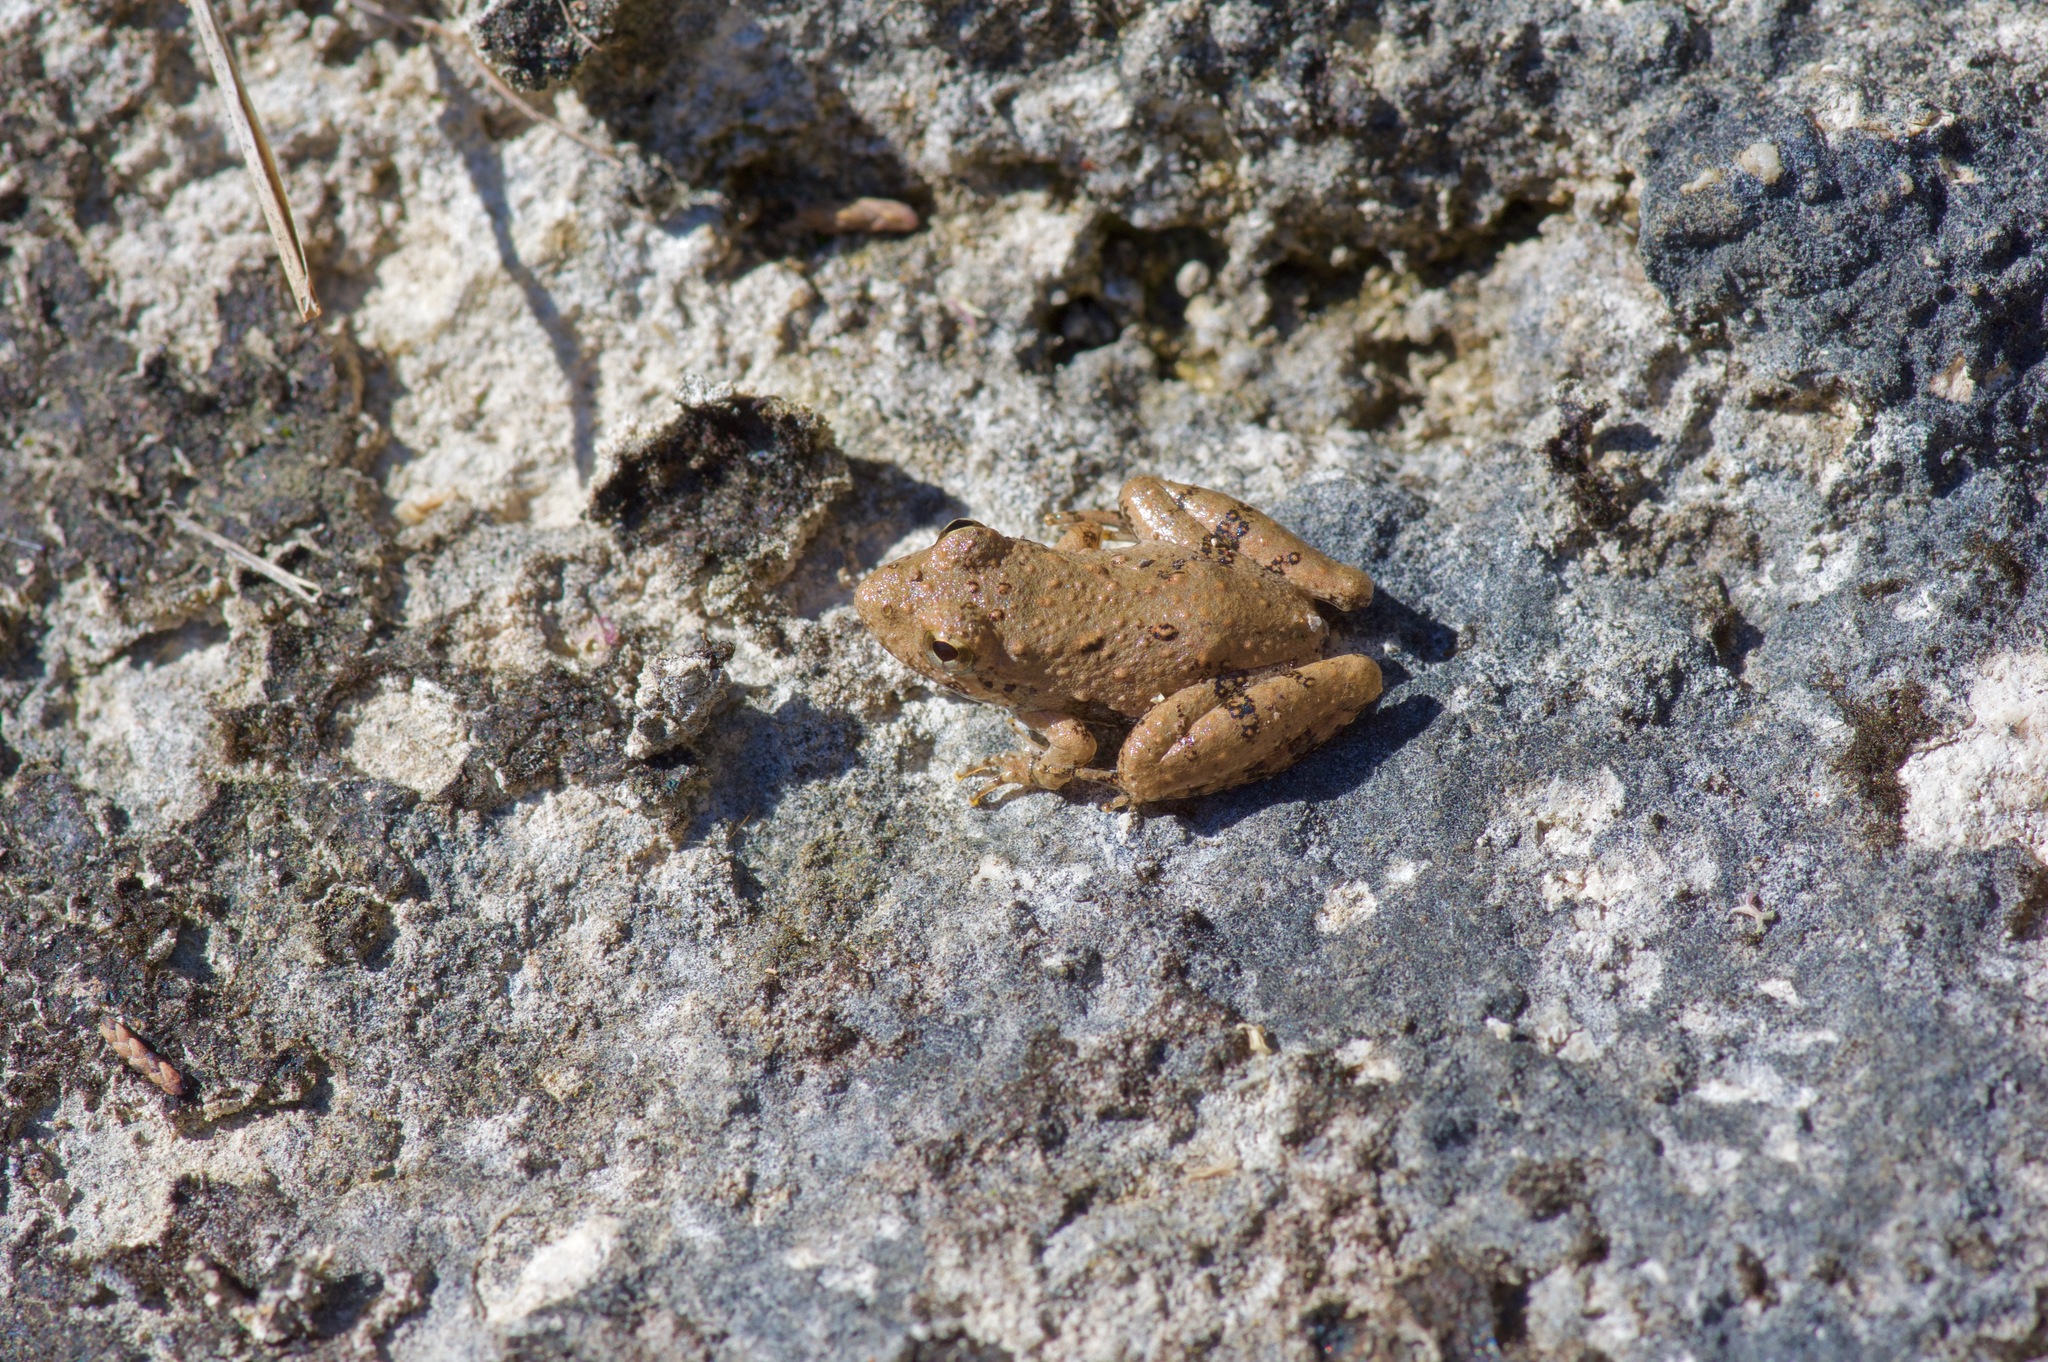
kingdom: Animalia
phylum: Chordata
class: Amphibia
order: Anura
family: Hylidae
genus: Acris
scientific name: Acris blanchardi
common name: Blanchard's cricket frog
